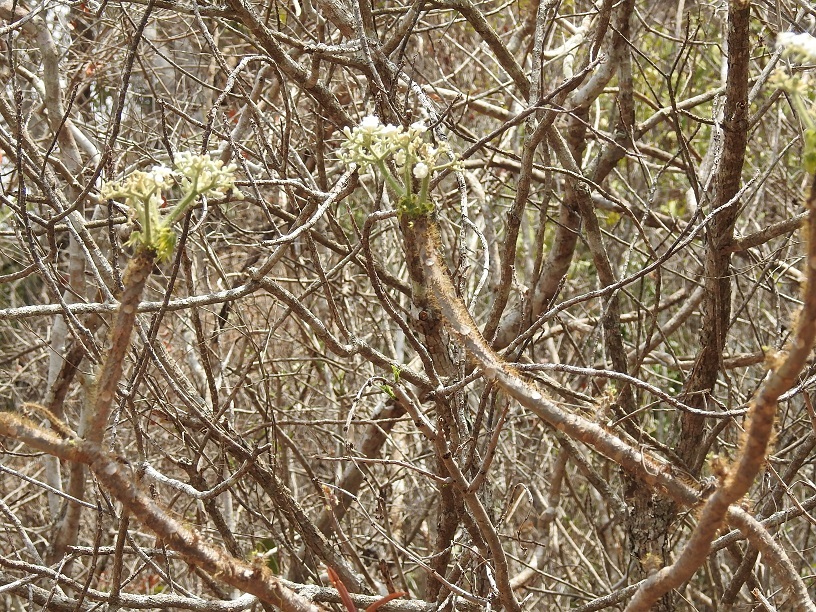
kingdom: Plantae
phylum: Tracheophyta
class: Magnoliopsida
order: Malpighiales
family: Euphorbiaceae
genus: Cnidoscolus
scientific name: Cnidoscolus aconitifolius
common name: Cabbage-star
